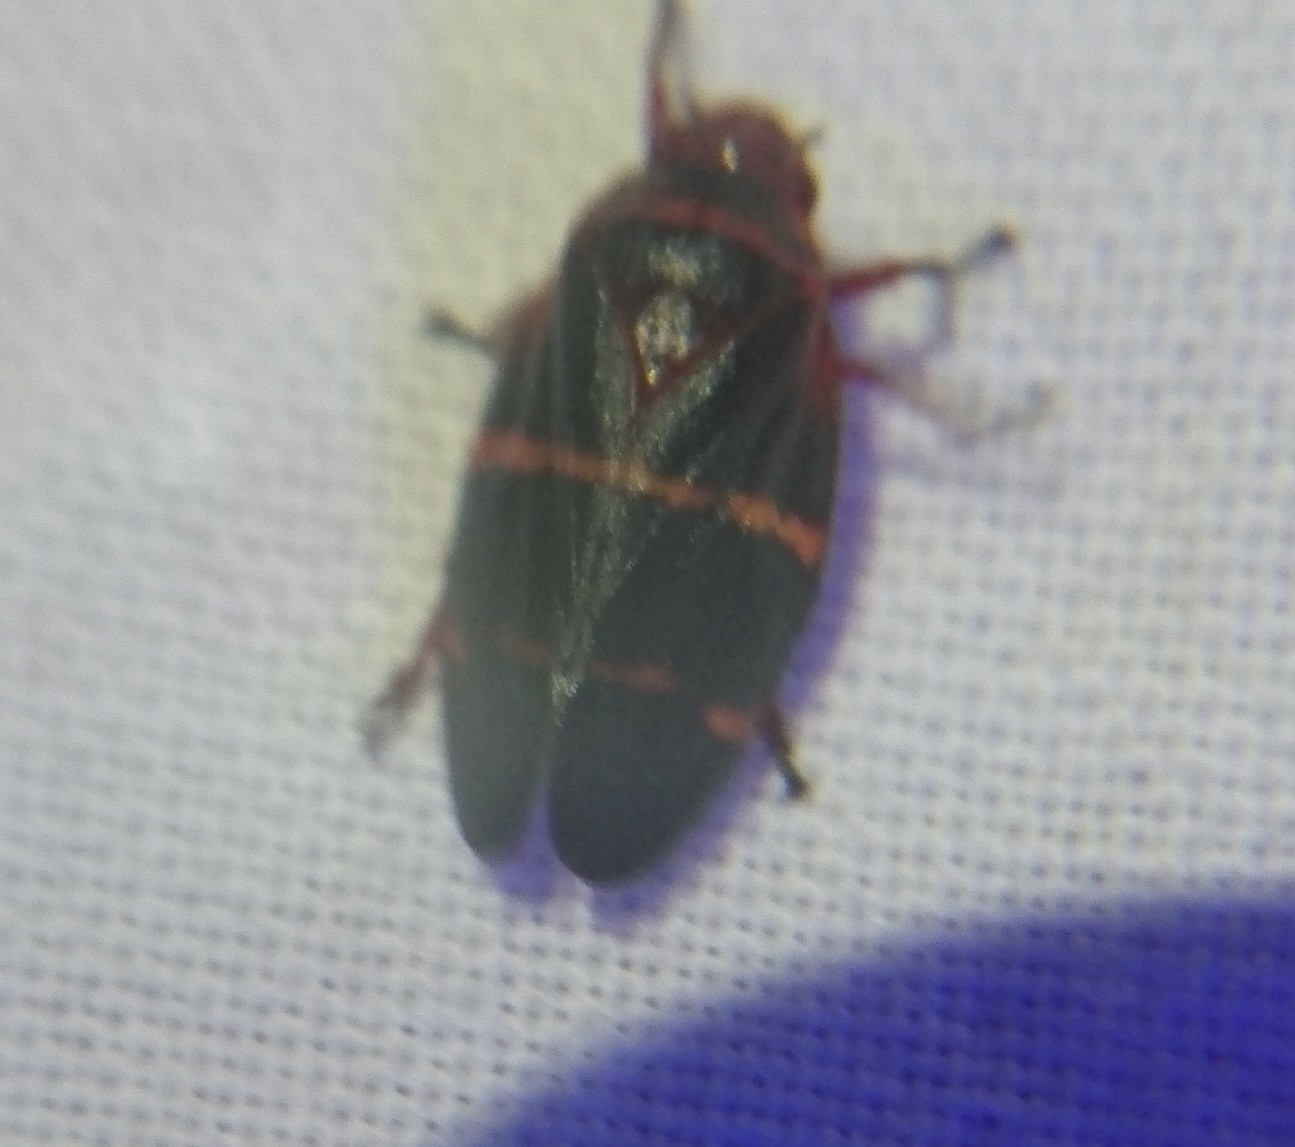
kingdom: Animalia
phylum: Arthropoda
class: Insecta
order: Hemiptera
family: Cercopidae
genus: Prosapia
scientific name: Prosapia bicincta
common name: Twolined spittlebug
